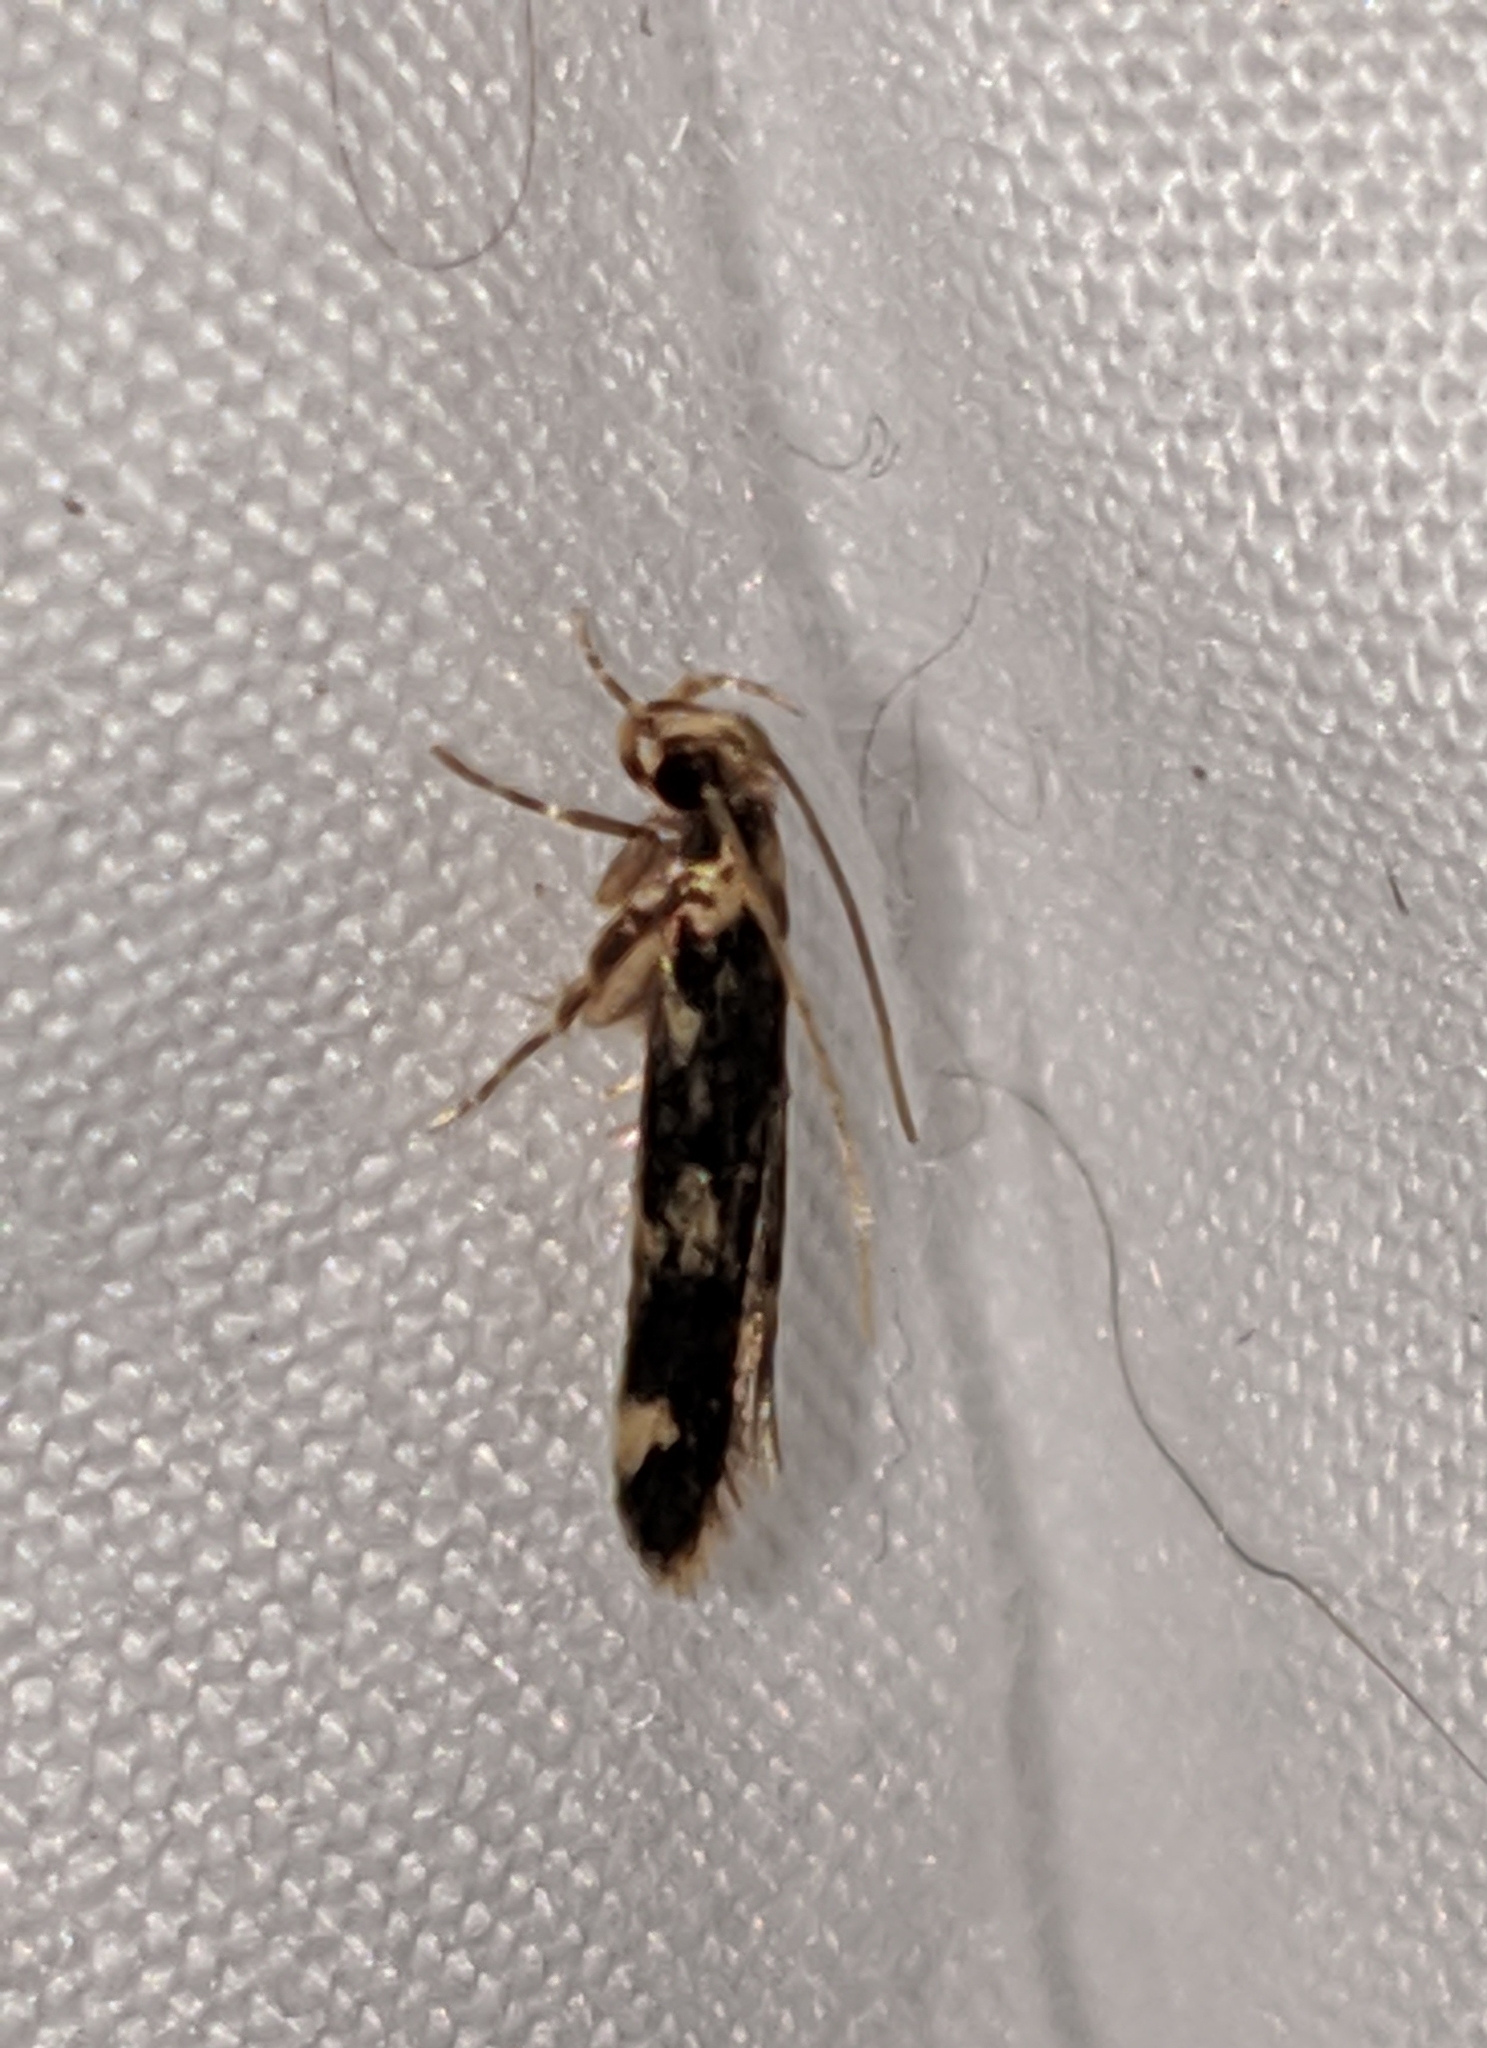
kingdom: Animalia
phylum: Arthropoda
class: Insecta
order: Lepidoptera
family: Autostichidae
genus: Oegoconia
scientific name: Oegoconia quadripuncta
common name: Four-spotted obscure
